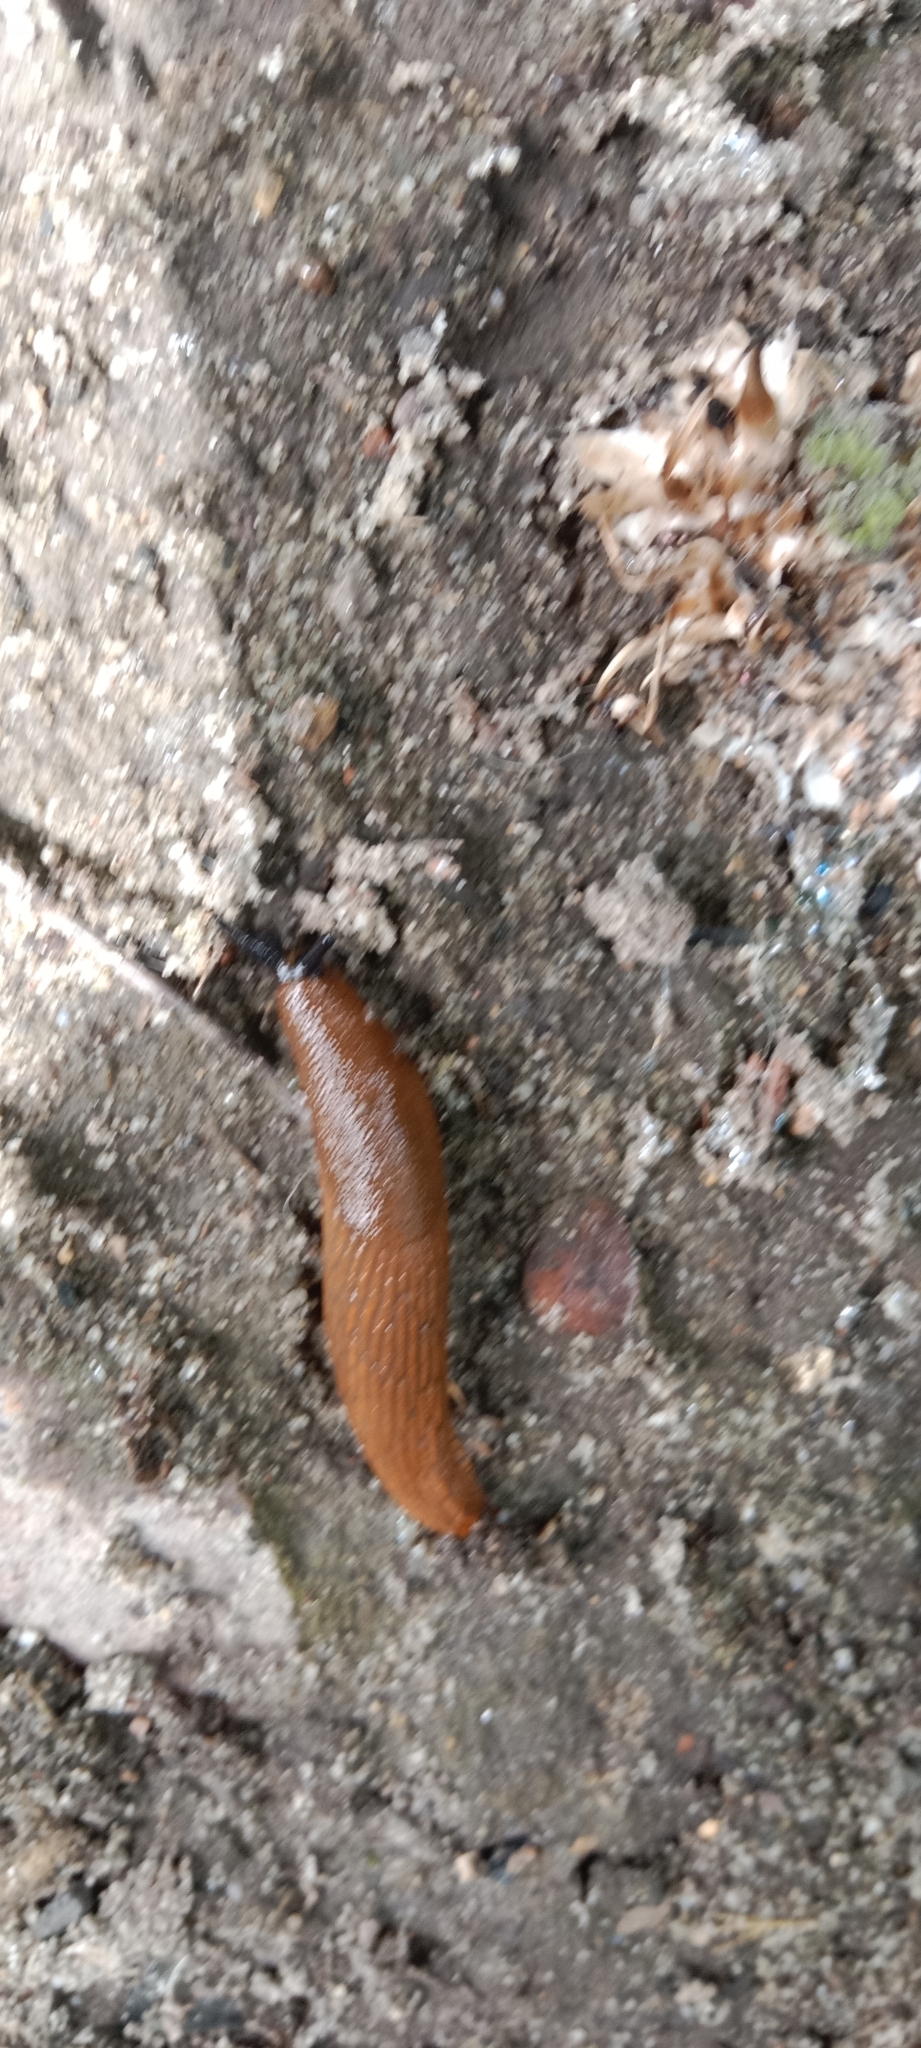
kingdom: Animalia
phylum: Mollusca
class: Gastropoda
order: Stylommatophora
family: Arionidae
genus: Arion
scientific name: Arion vulgaris
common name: Lusitanian slug
